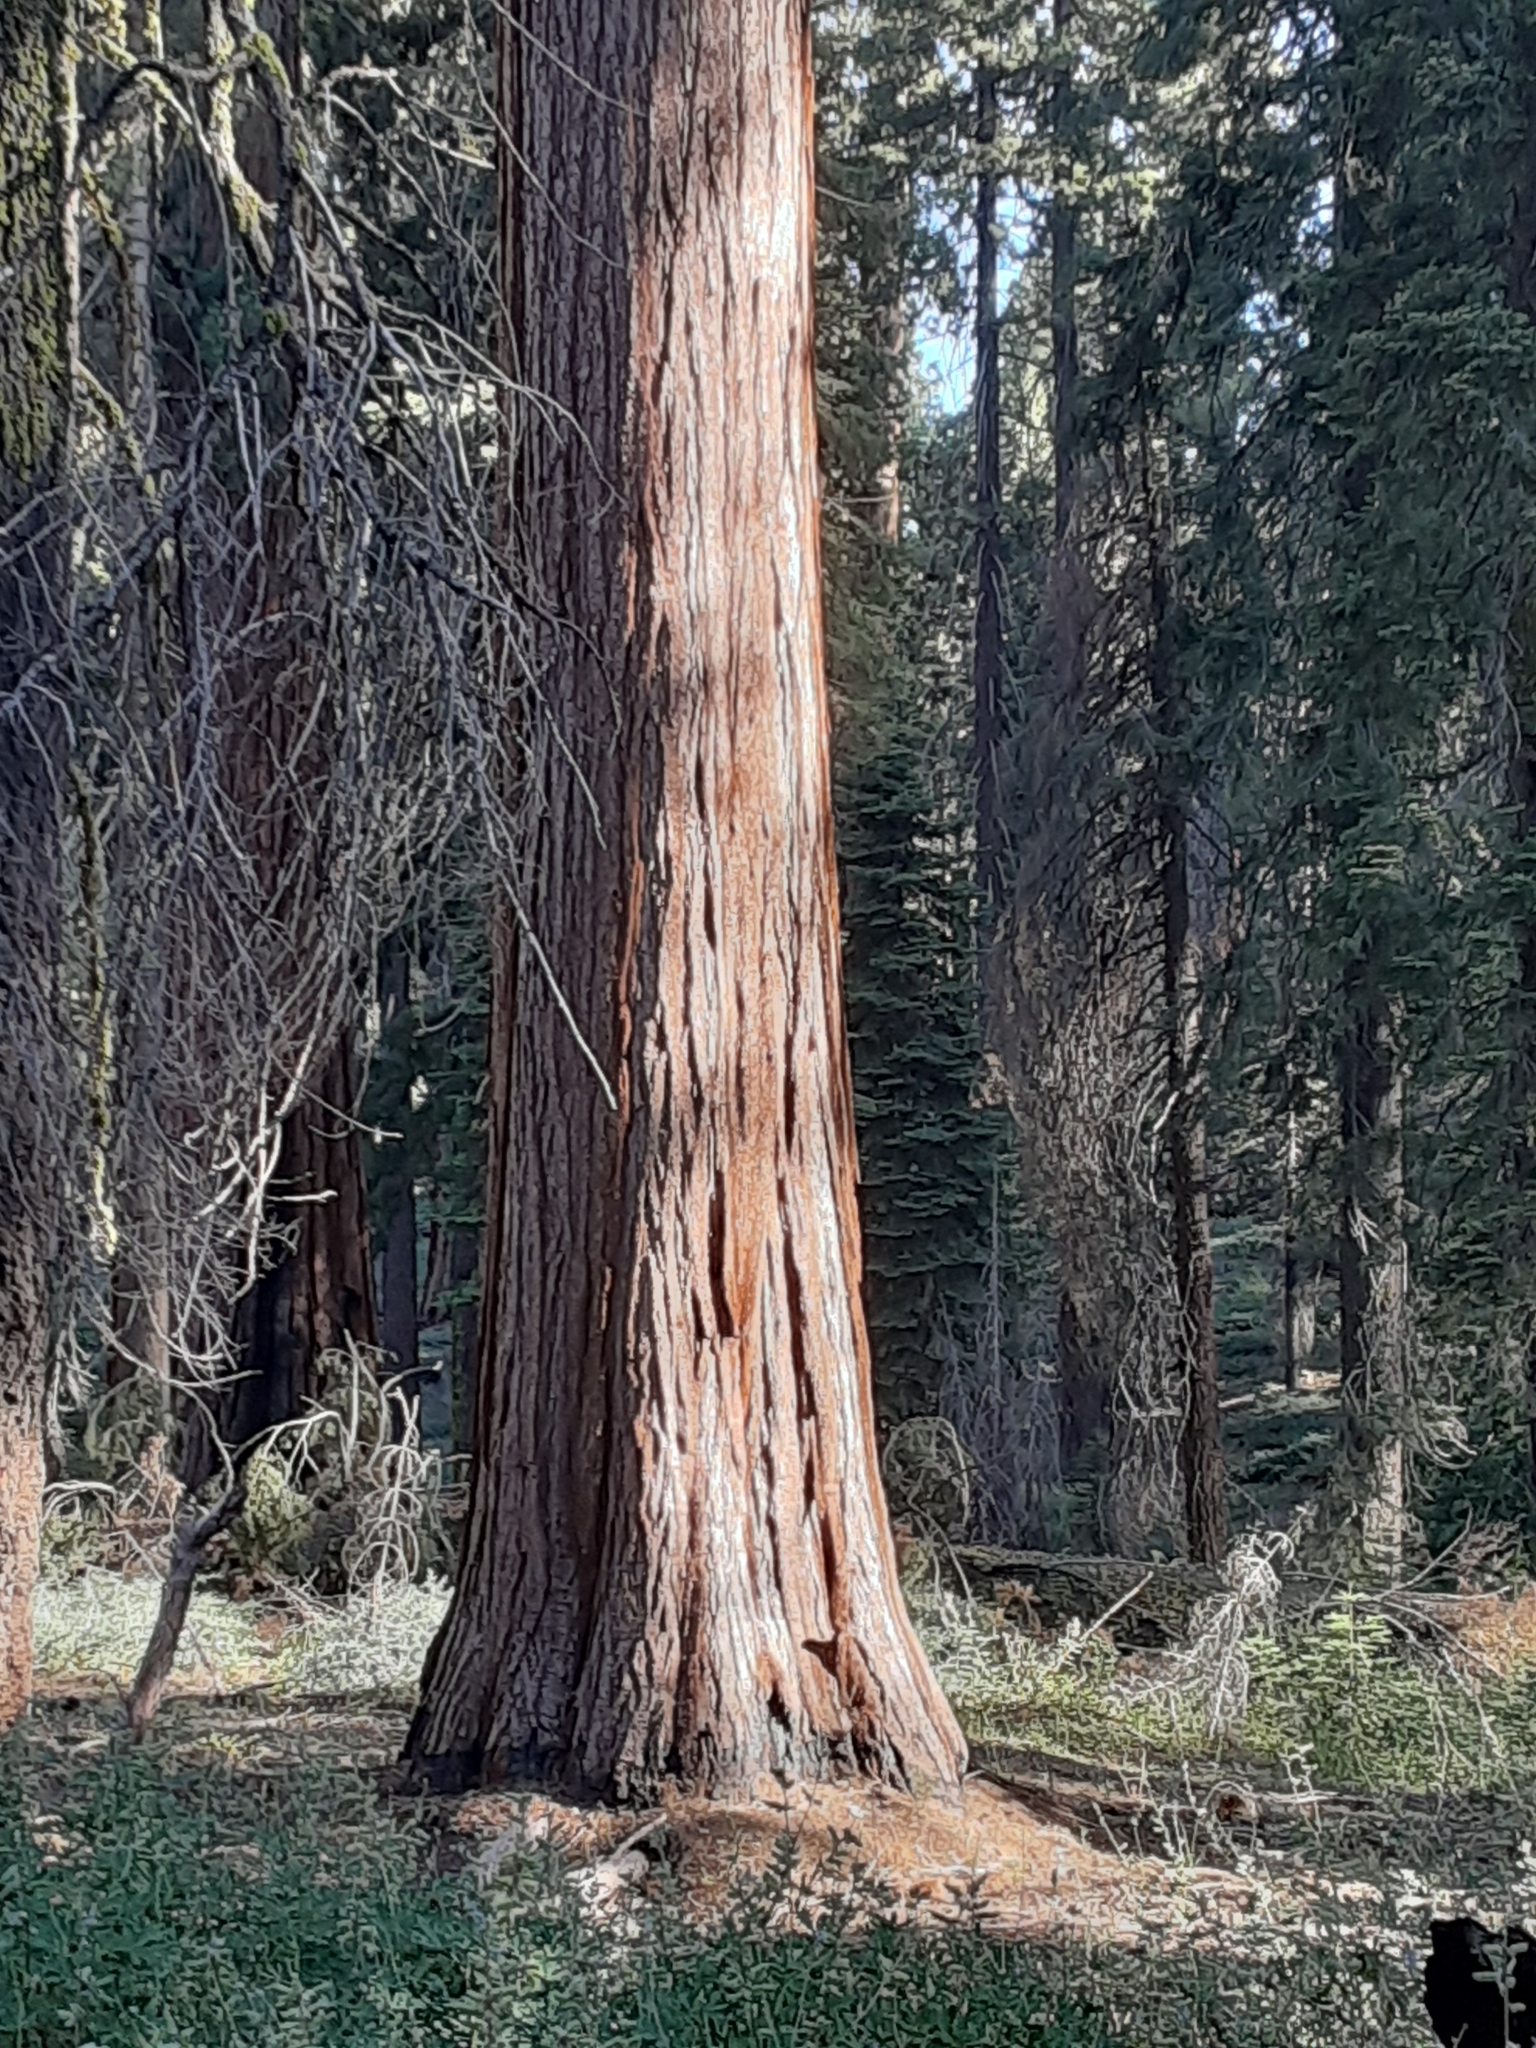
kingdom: Plantae
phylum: Tracheophyta
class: Pinopsida
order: Pinales
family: Cupressaceae
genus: Sequoiadendron
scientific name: Sequoiadendron giganteum
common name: Wellingtonia
